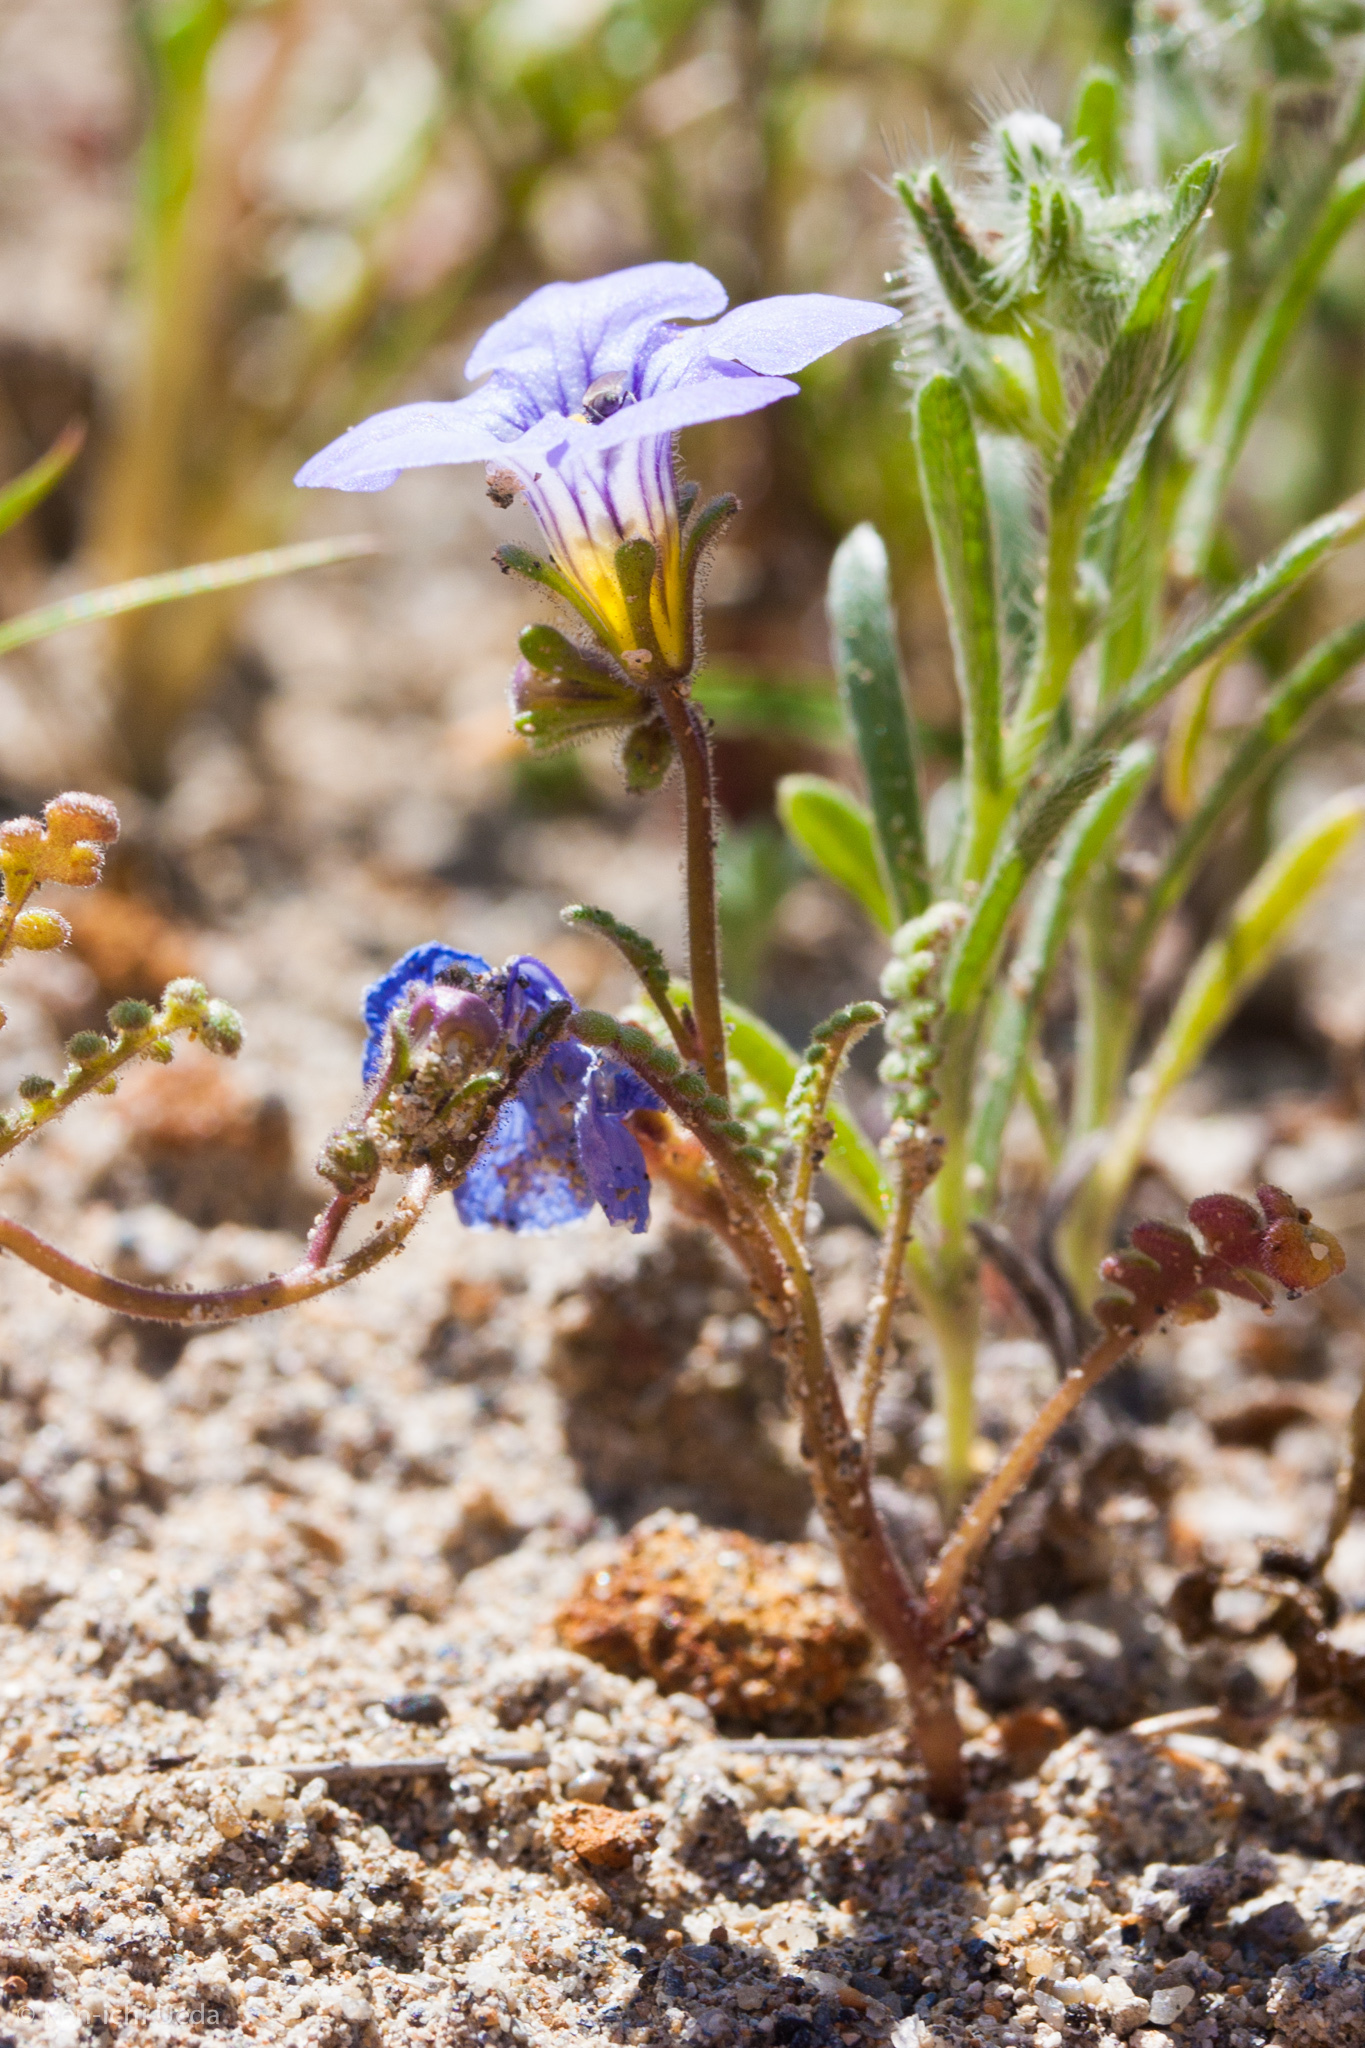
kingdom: Plantae
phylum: Tracheophyta
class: Magnoliopsida
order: Boraginales
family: Hydrophyllaceae
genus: Phacelia
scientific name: Phacelia fremontii
